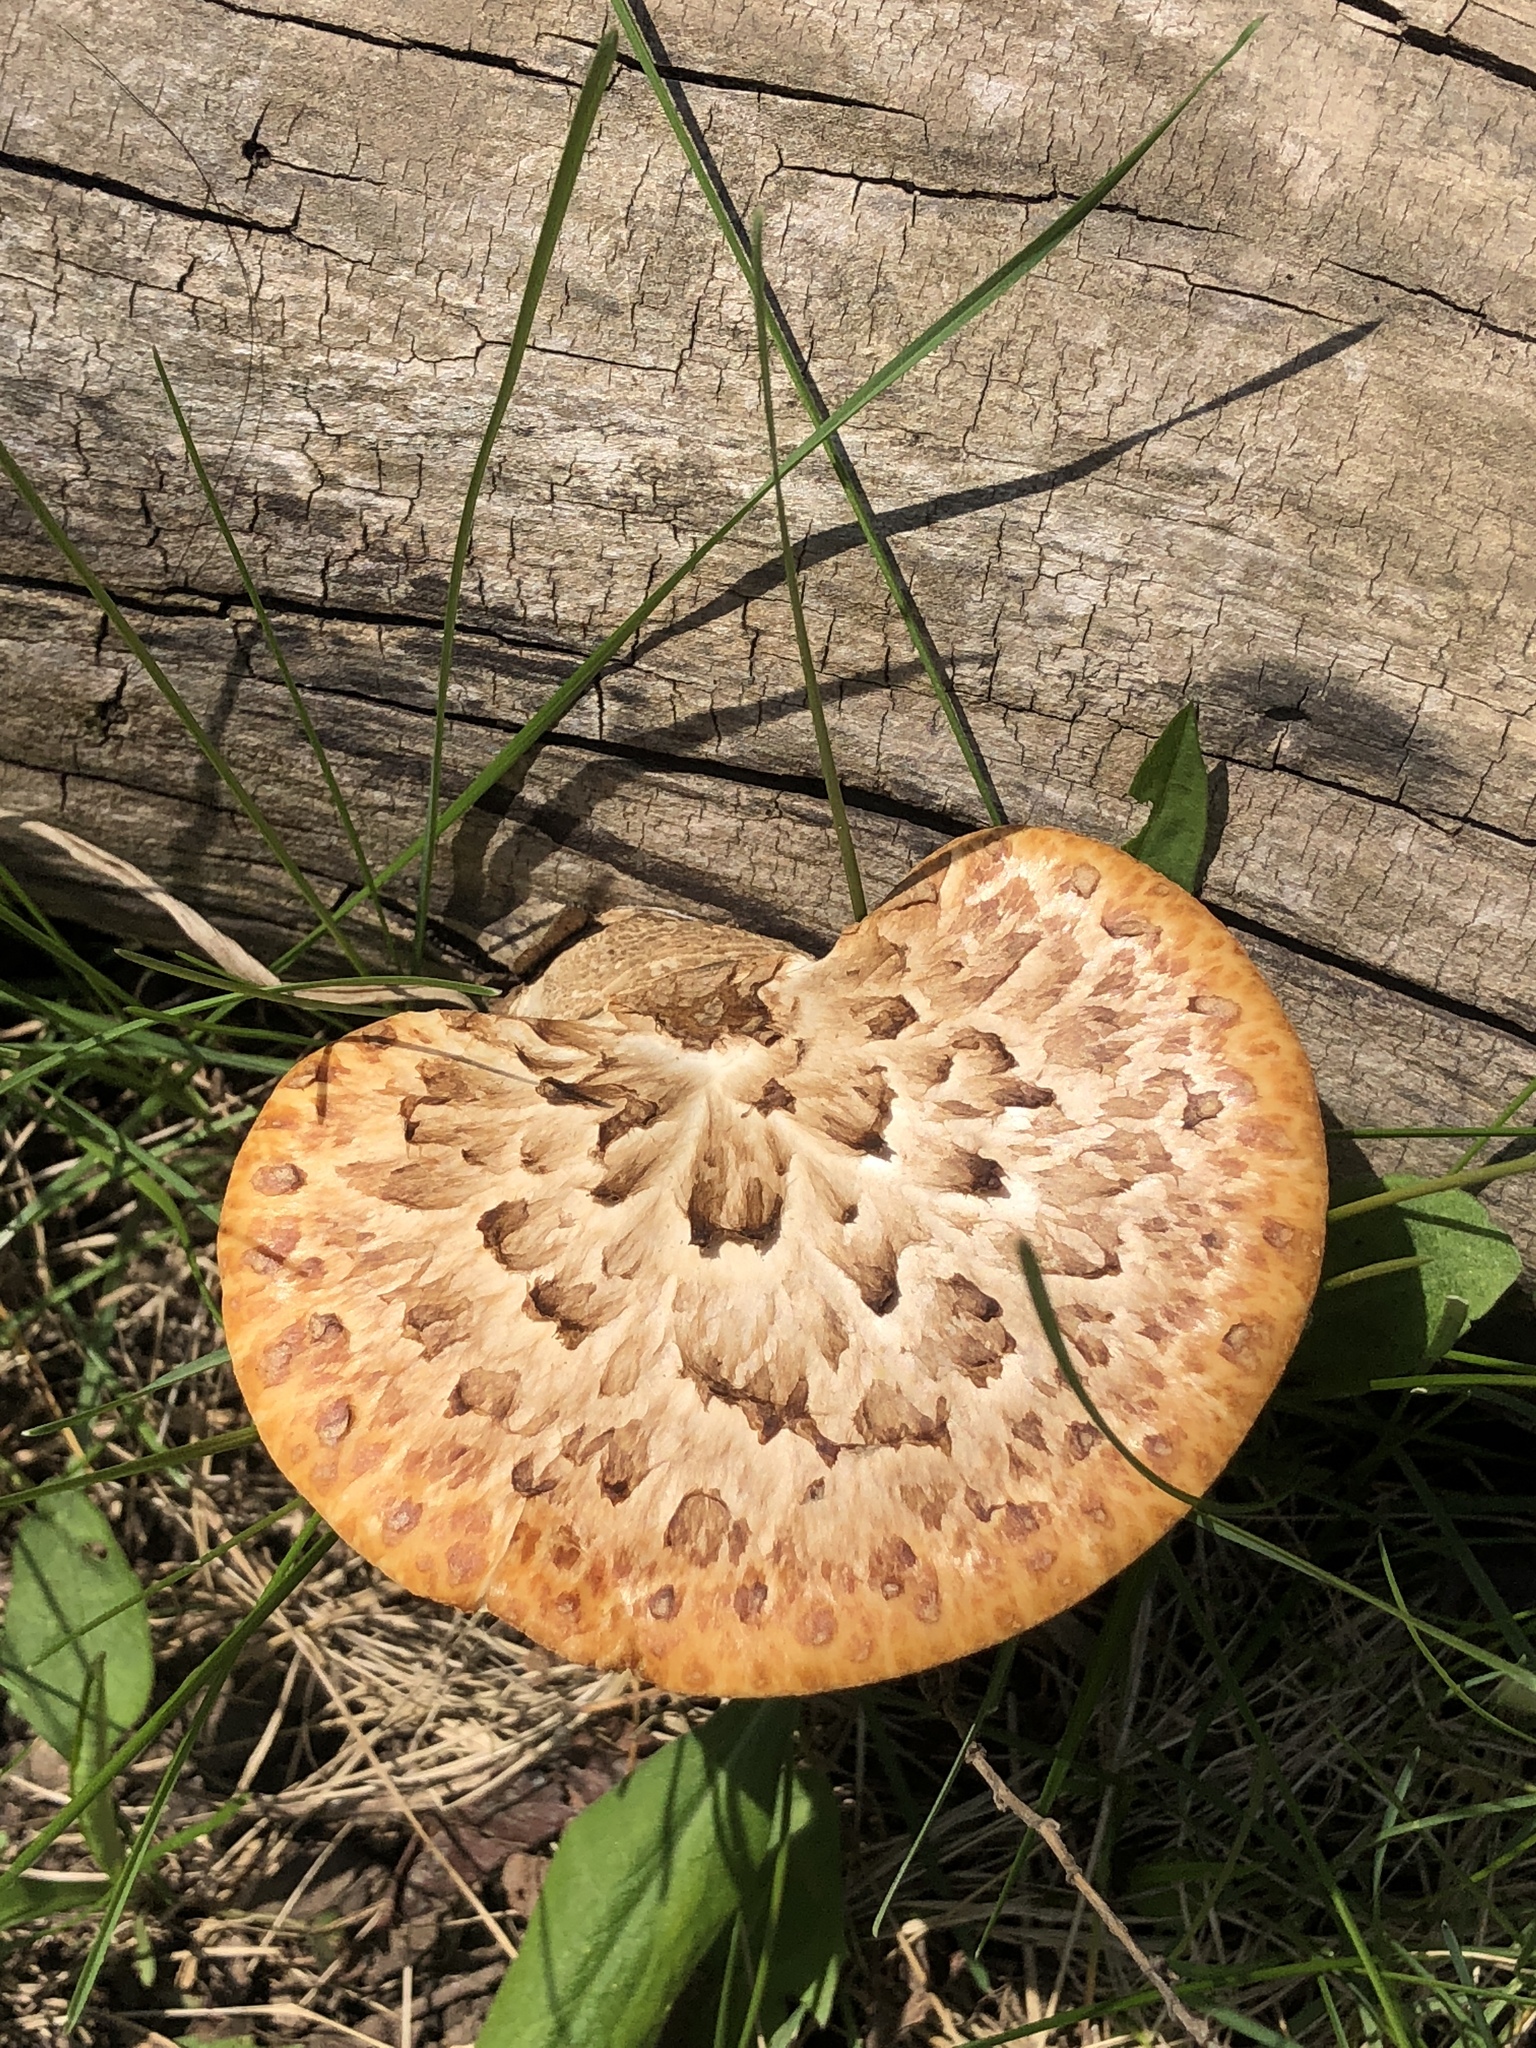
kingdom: Fungi
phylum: Basidiomycota
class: Agaricomycetes
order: Polyporales
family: Polyporaceae
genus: Cerioporus
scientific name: Cerioporus squamosus
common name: Dryad's saddle
